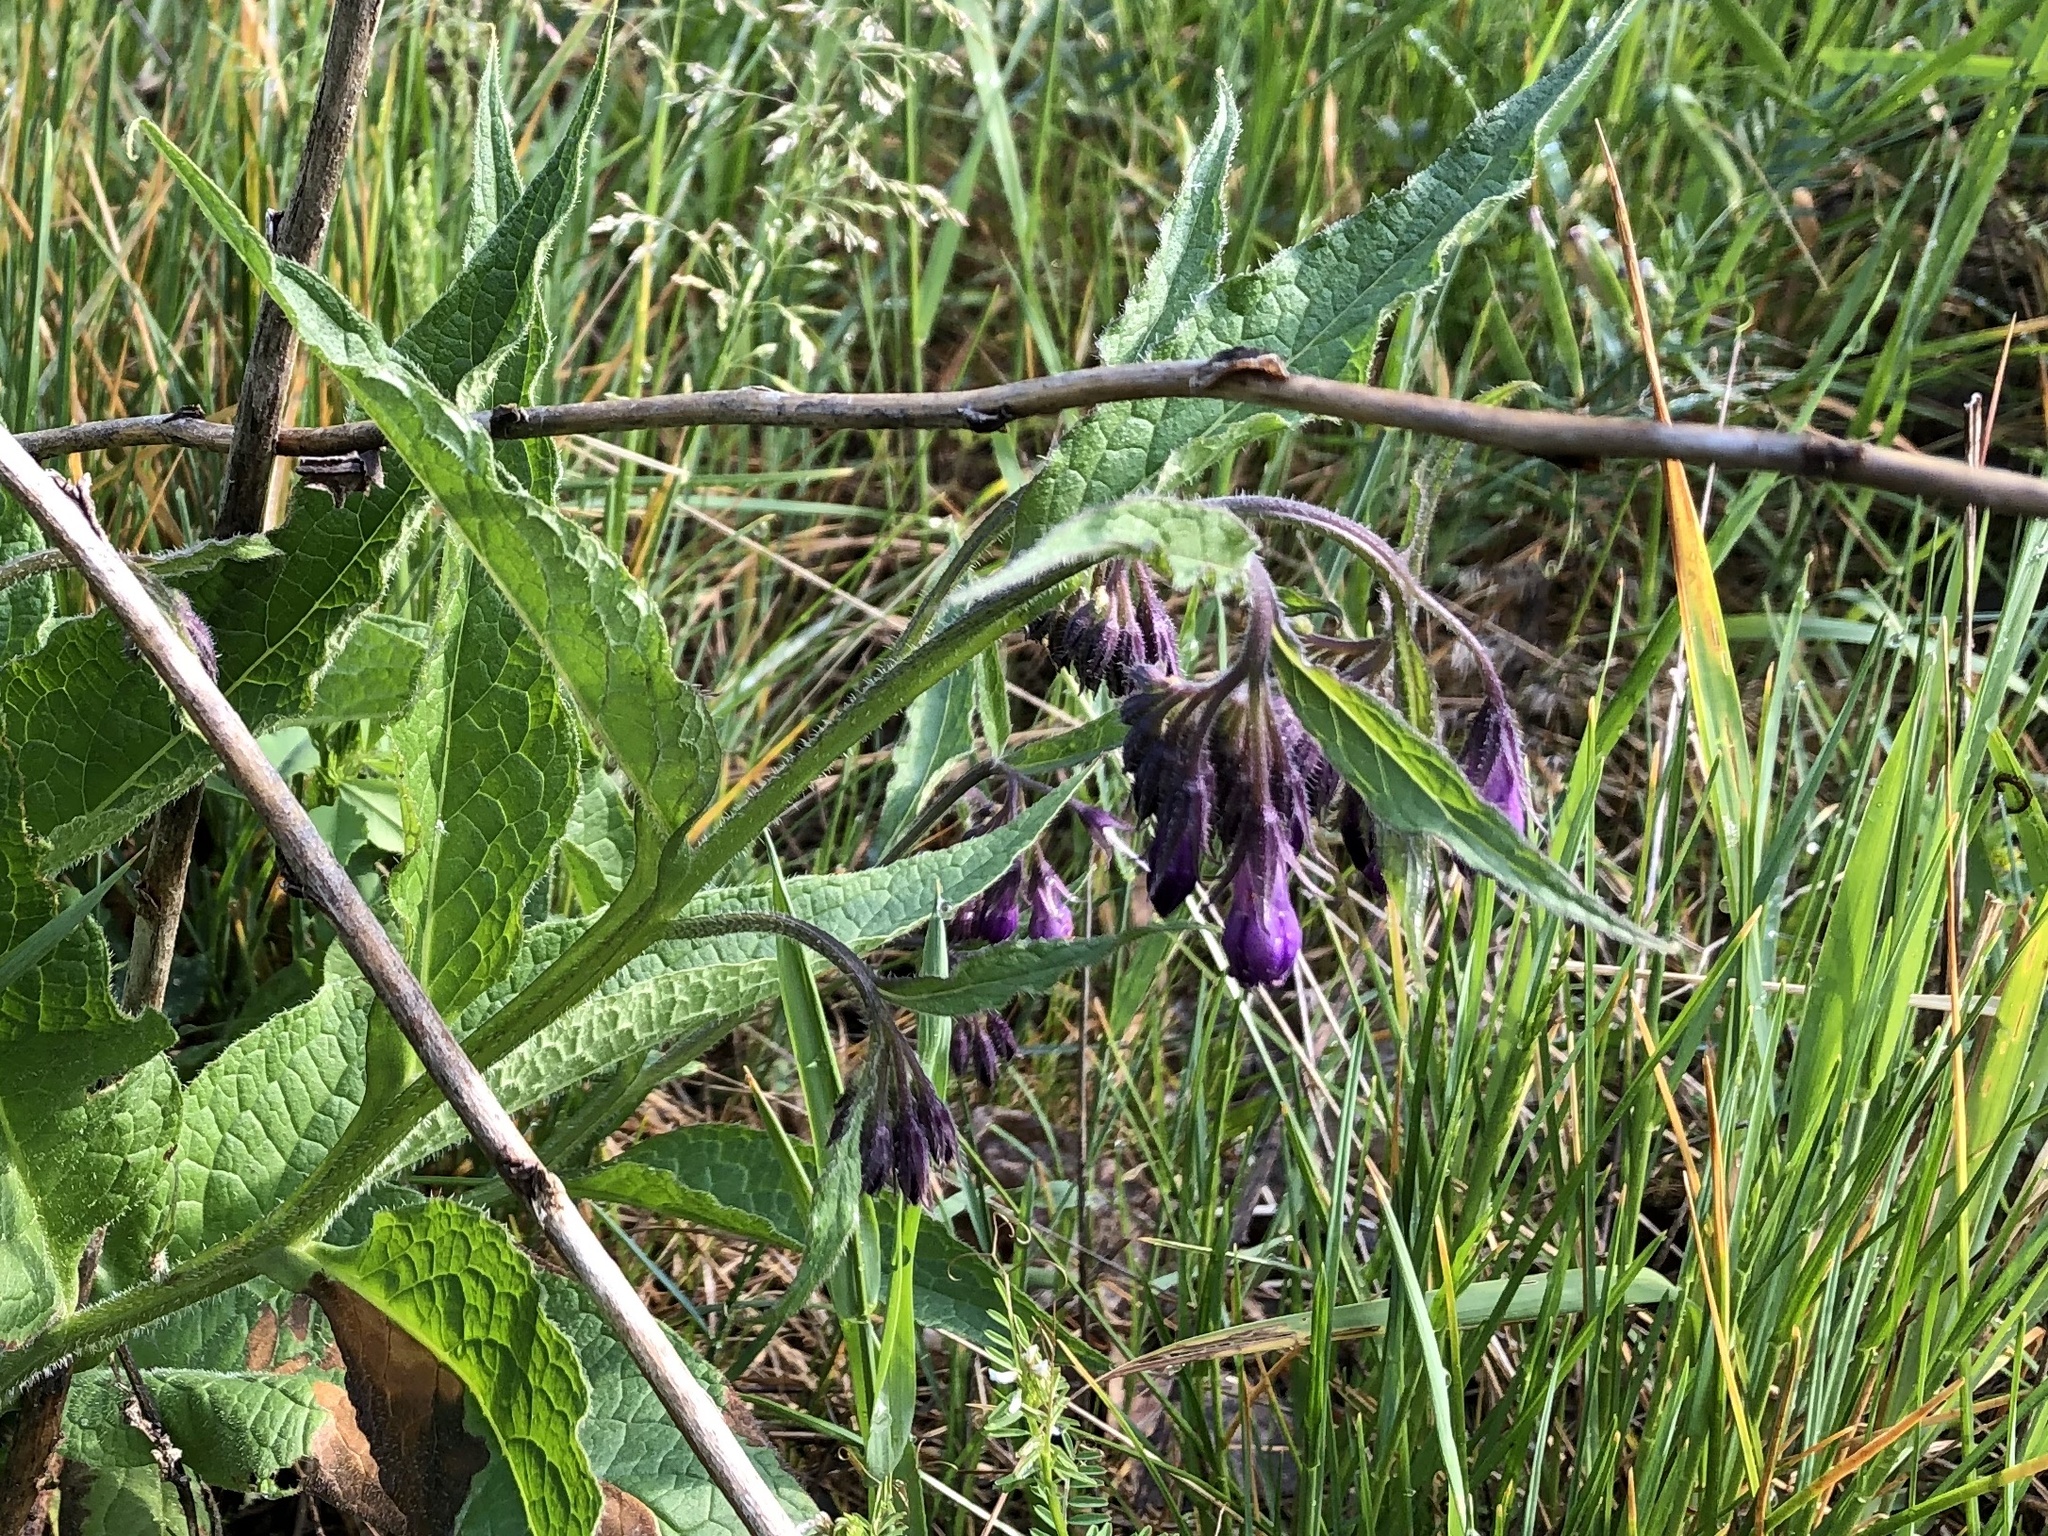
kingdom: Plantae
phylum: Tracheophyta
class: Magnoliopsida
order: Boraginales
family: Boraginaceae
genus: Symphytum
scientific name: Symphytum officinale
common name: Common comfrey
